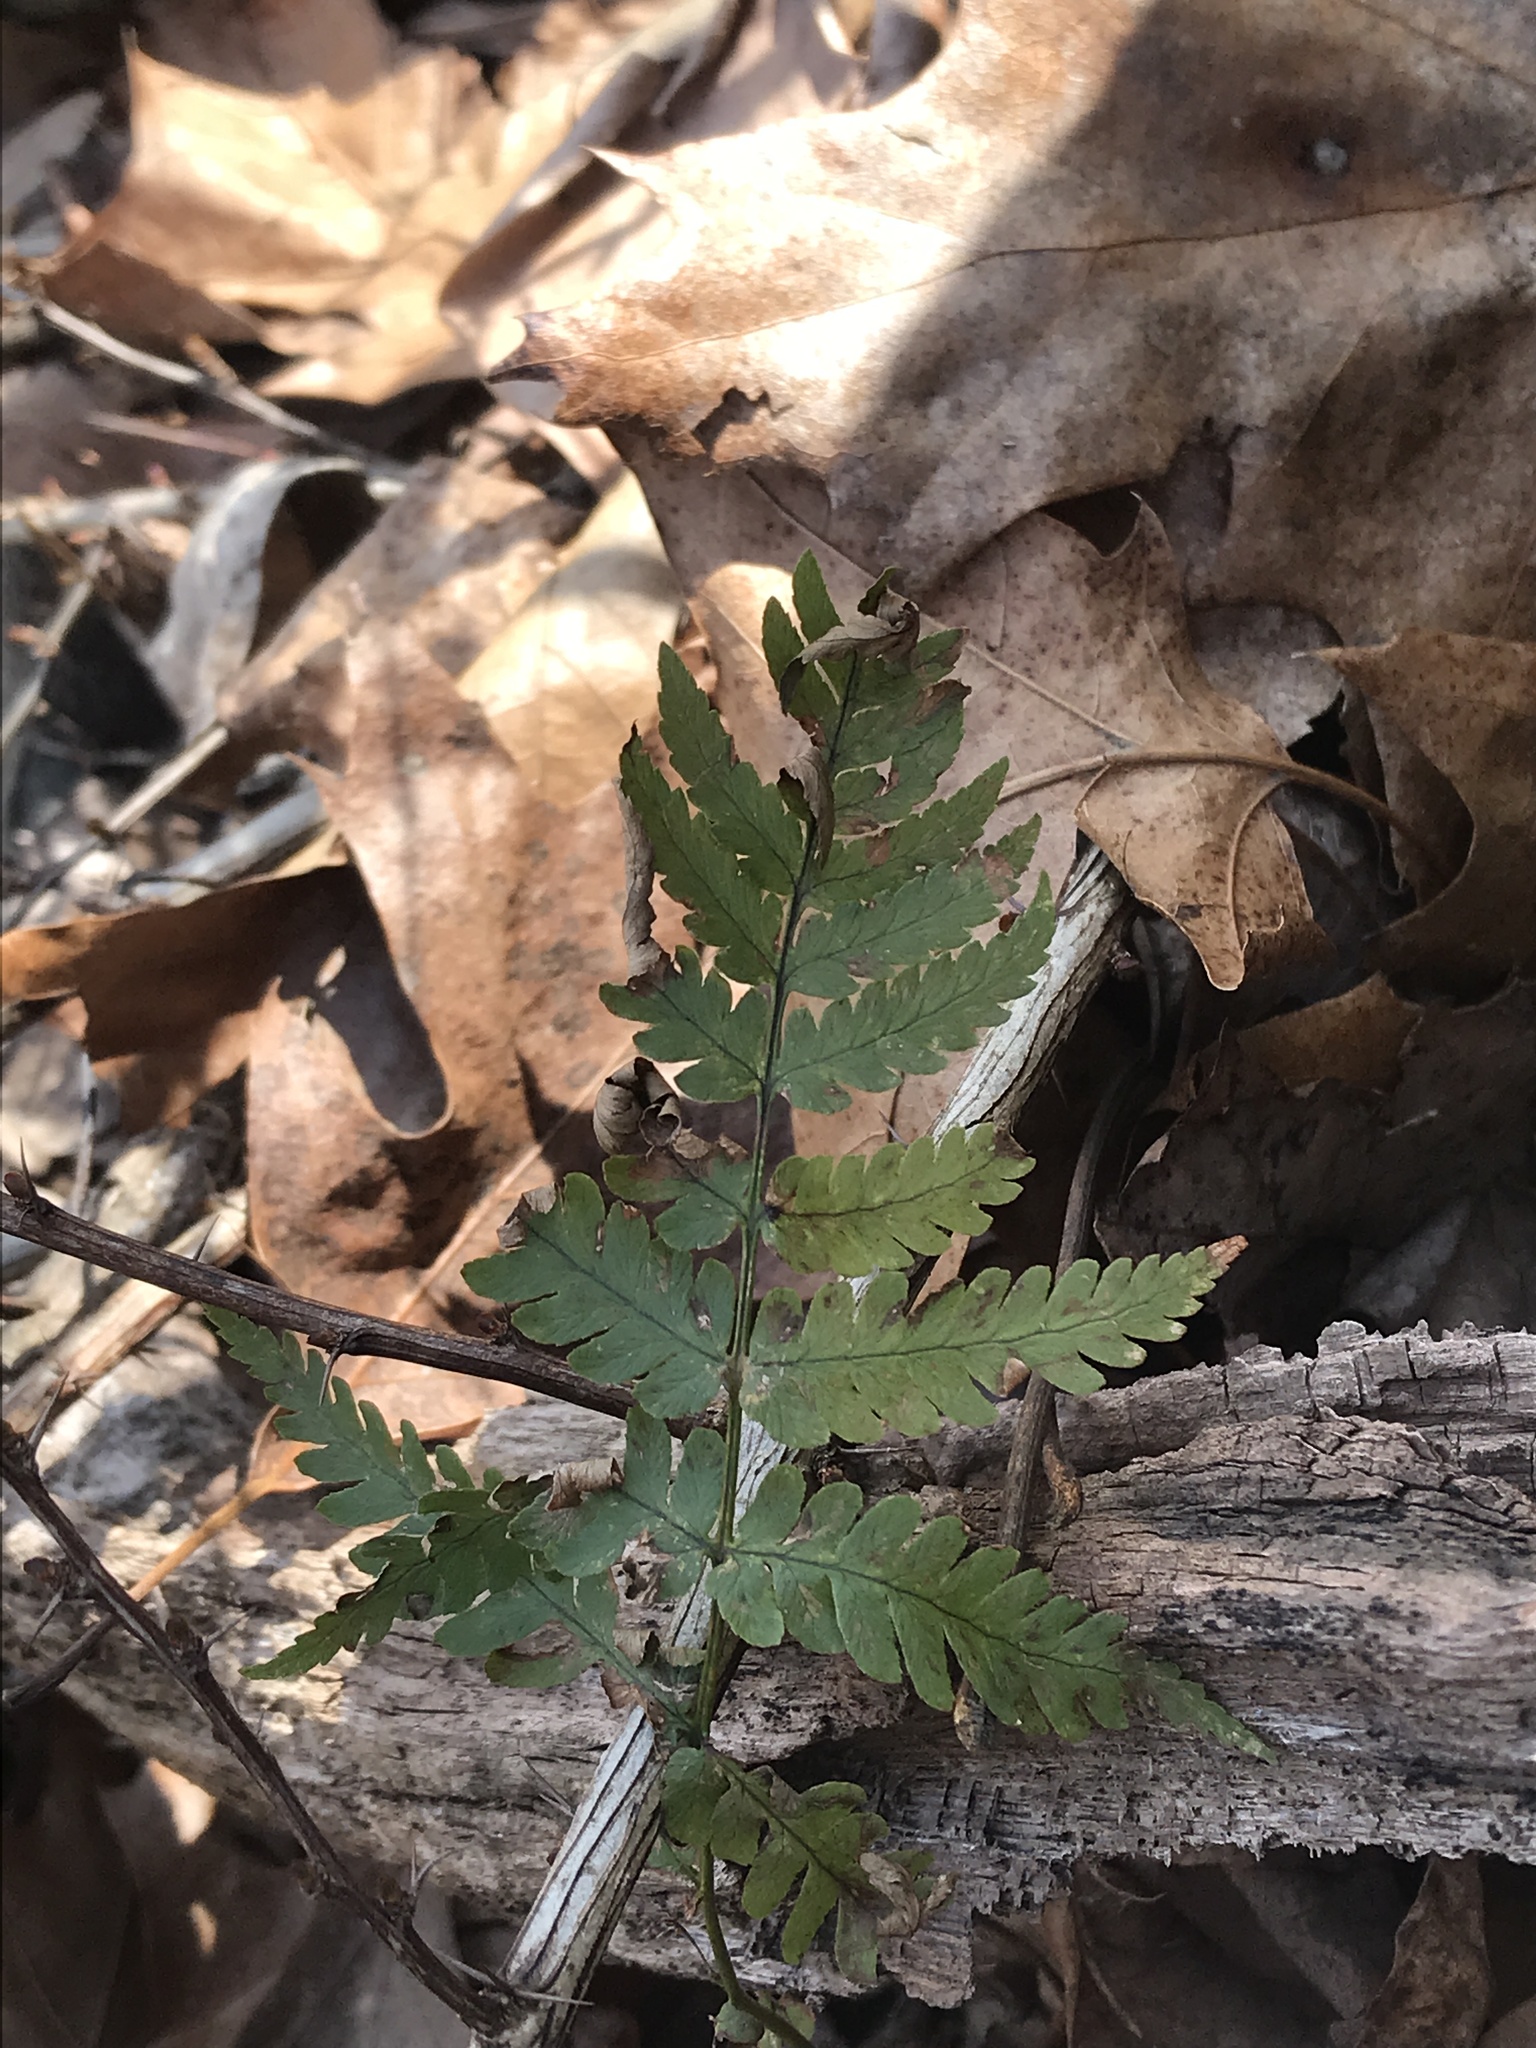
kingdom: Plantae
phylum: Tracheophyta
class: Polypodiopsida
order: Polypodiales
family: Dryopteridaceae
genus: Dryopteris
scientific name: Dryopteris celsa
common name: Log fern
